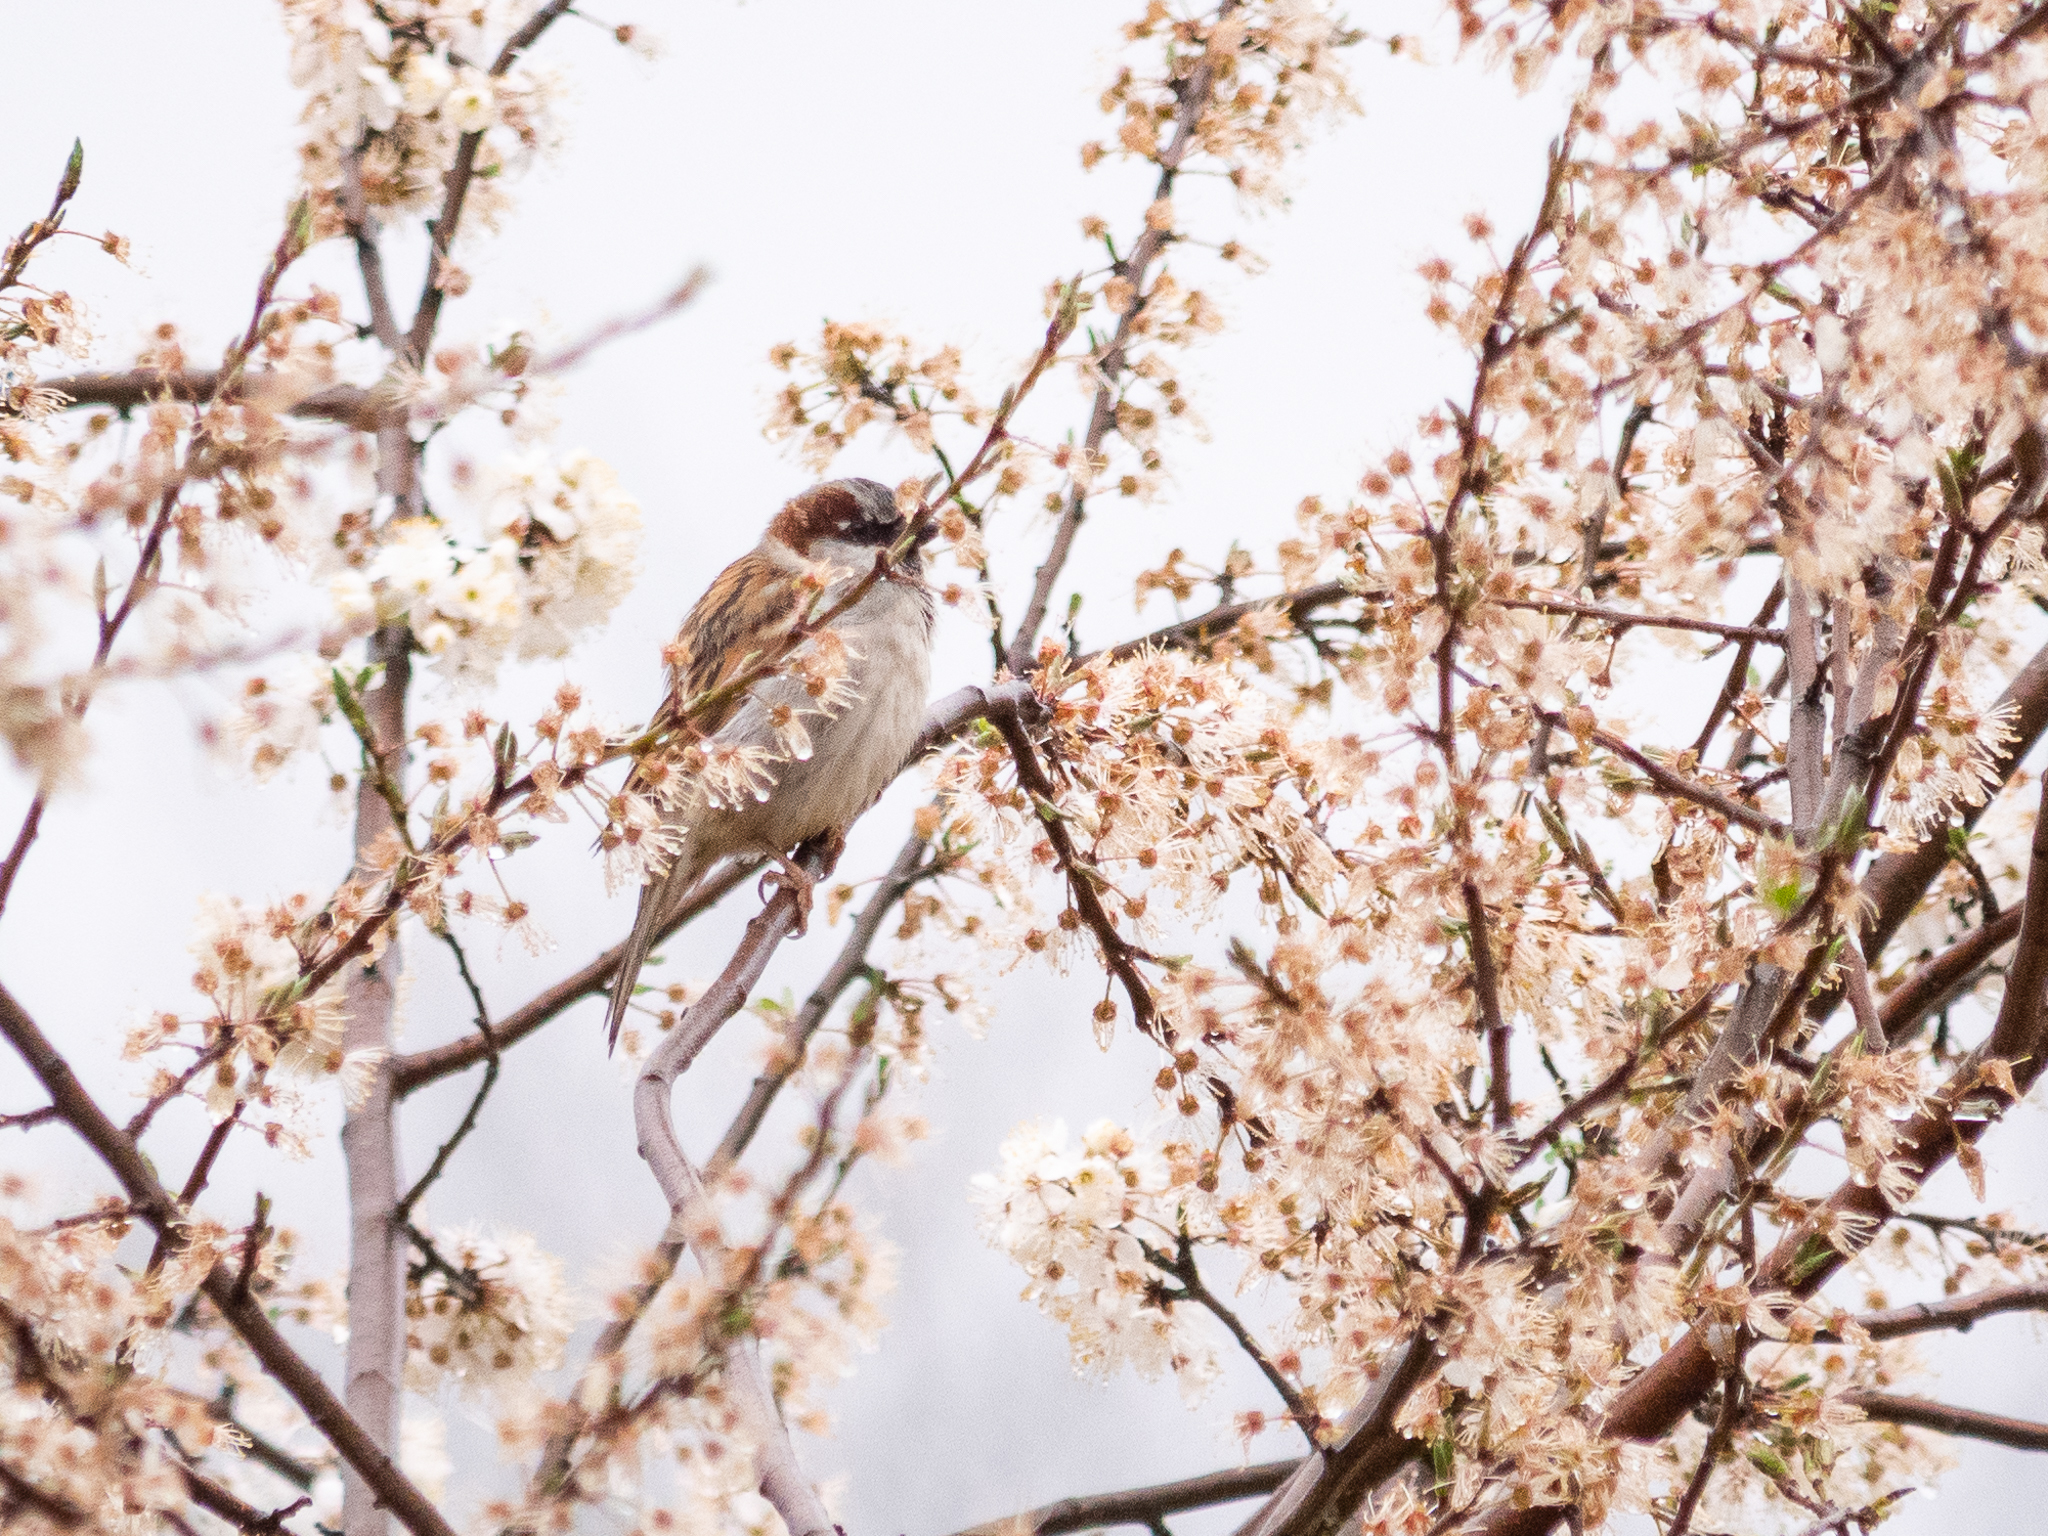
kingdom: Animalia
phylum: Chordata
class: Aves
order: Passeriformes
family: Passeridae
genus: Passer
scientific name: Passer domesticus
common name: House sparrow
